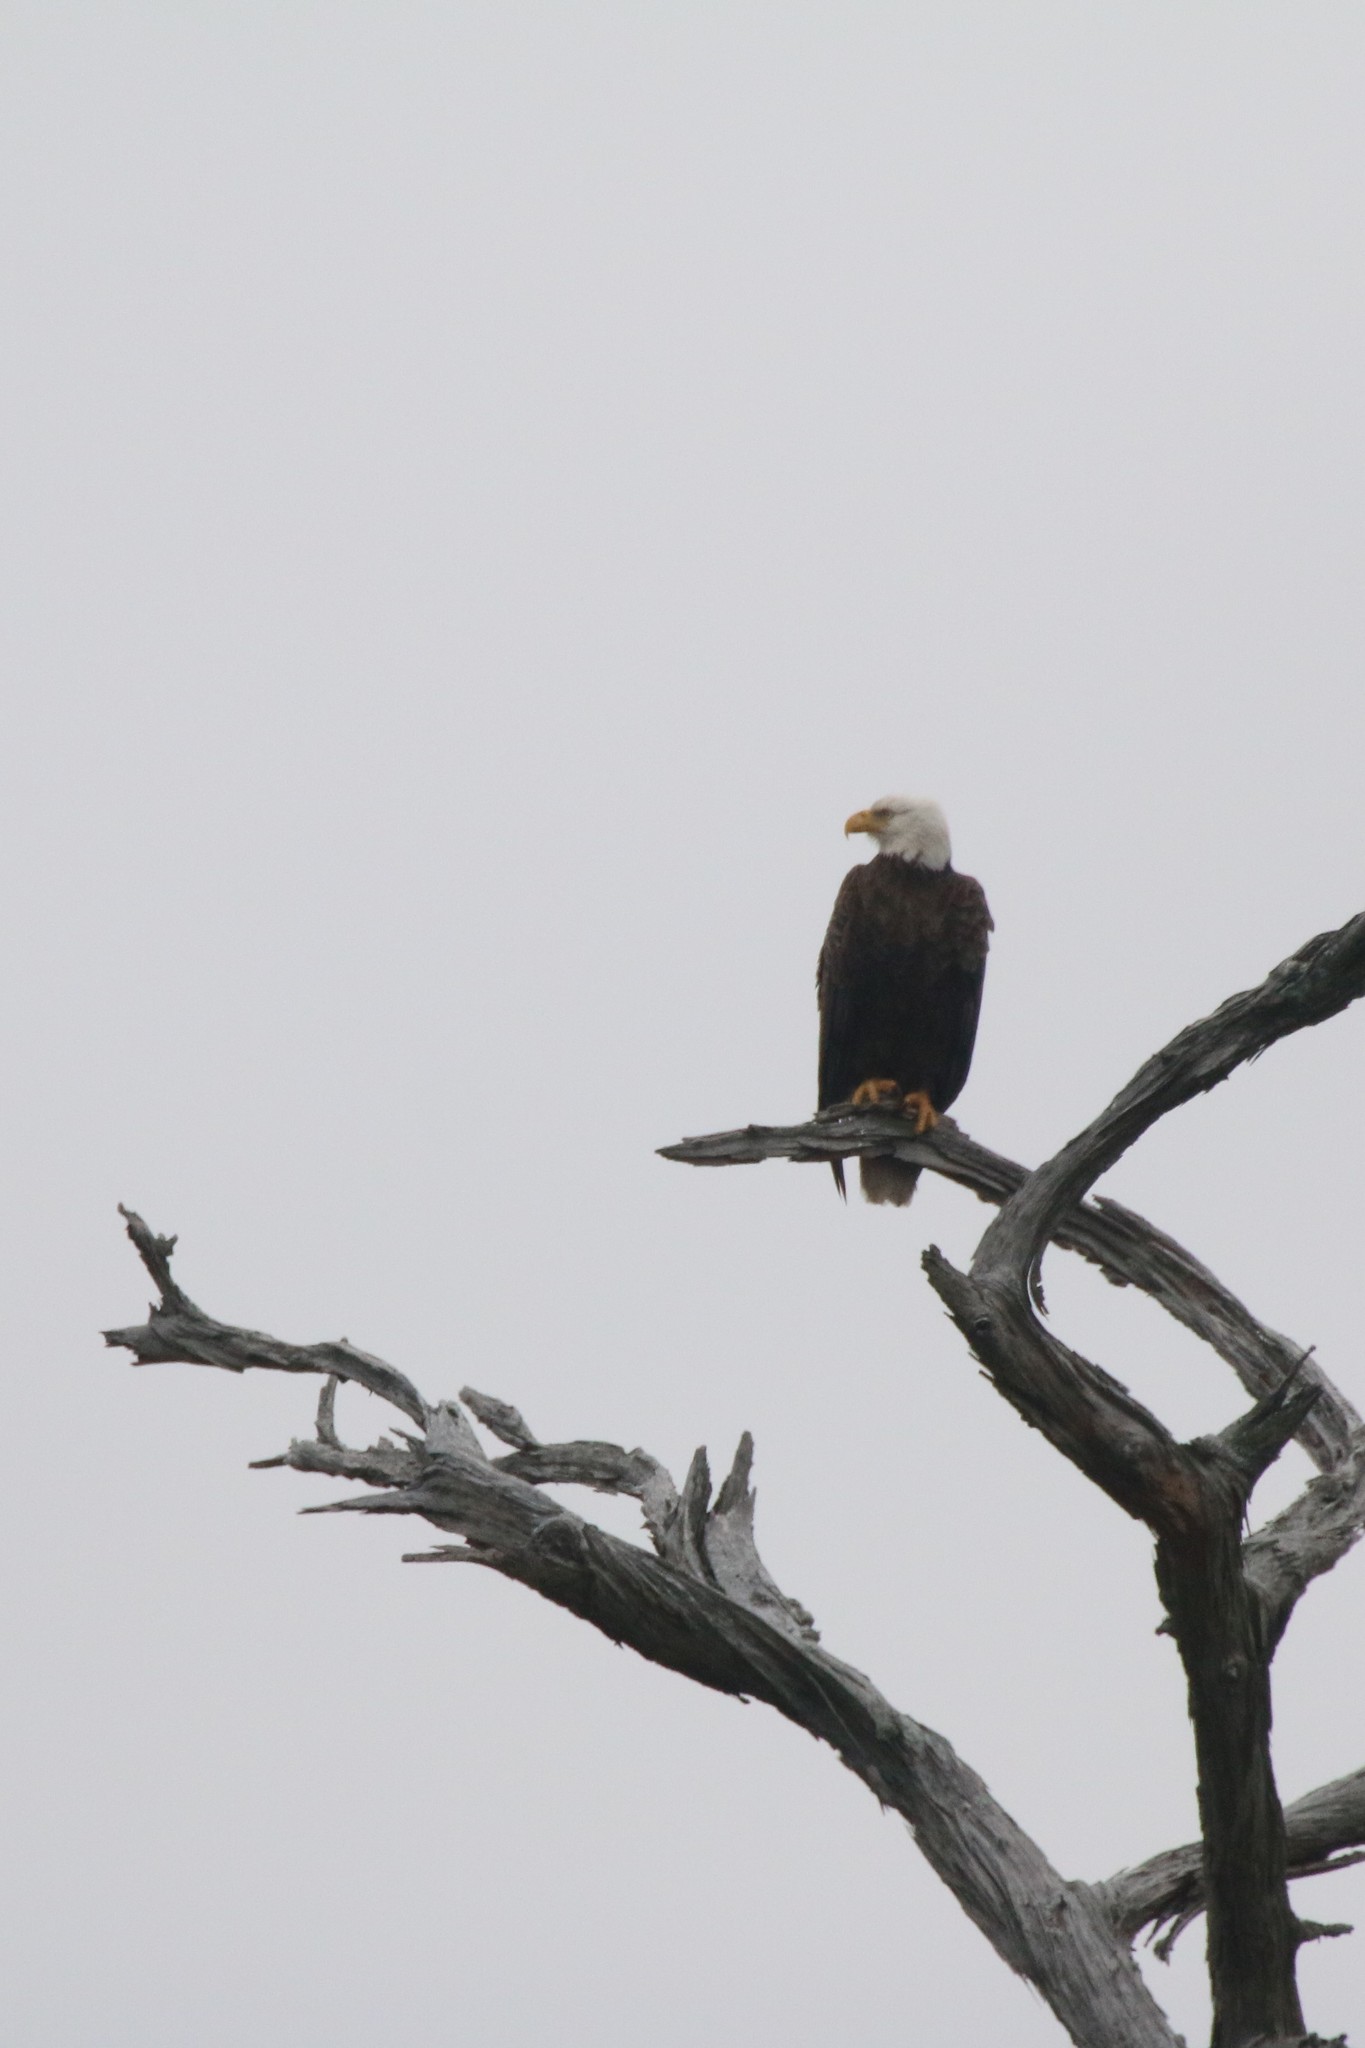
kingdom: Animalia
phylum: Chordata
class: Aves
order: Accipitriformes
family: Accipitridae
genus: Haliaeetus
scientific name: Haliaeetus leucocephalus
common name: Bald eagle
